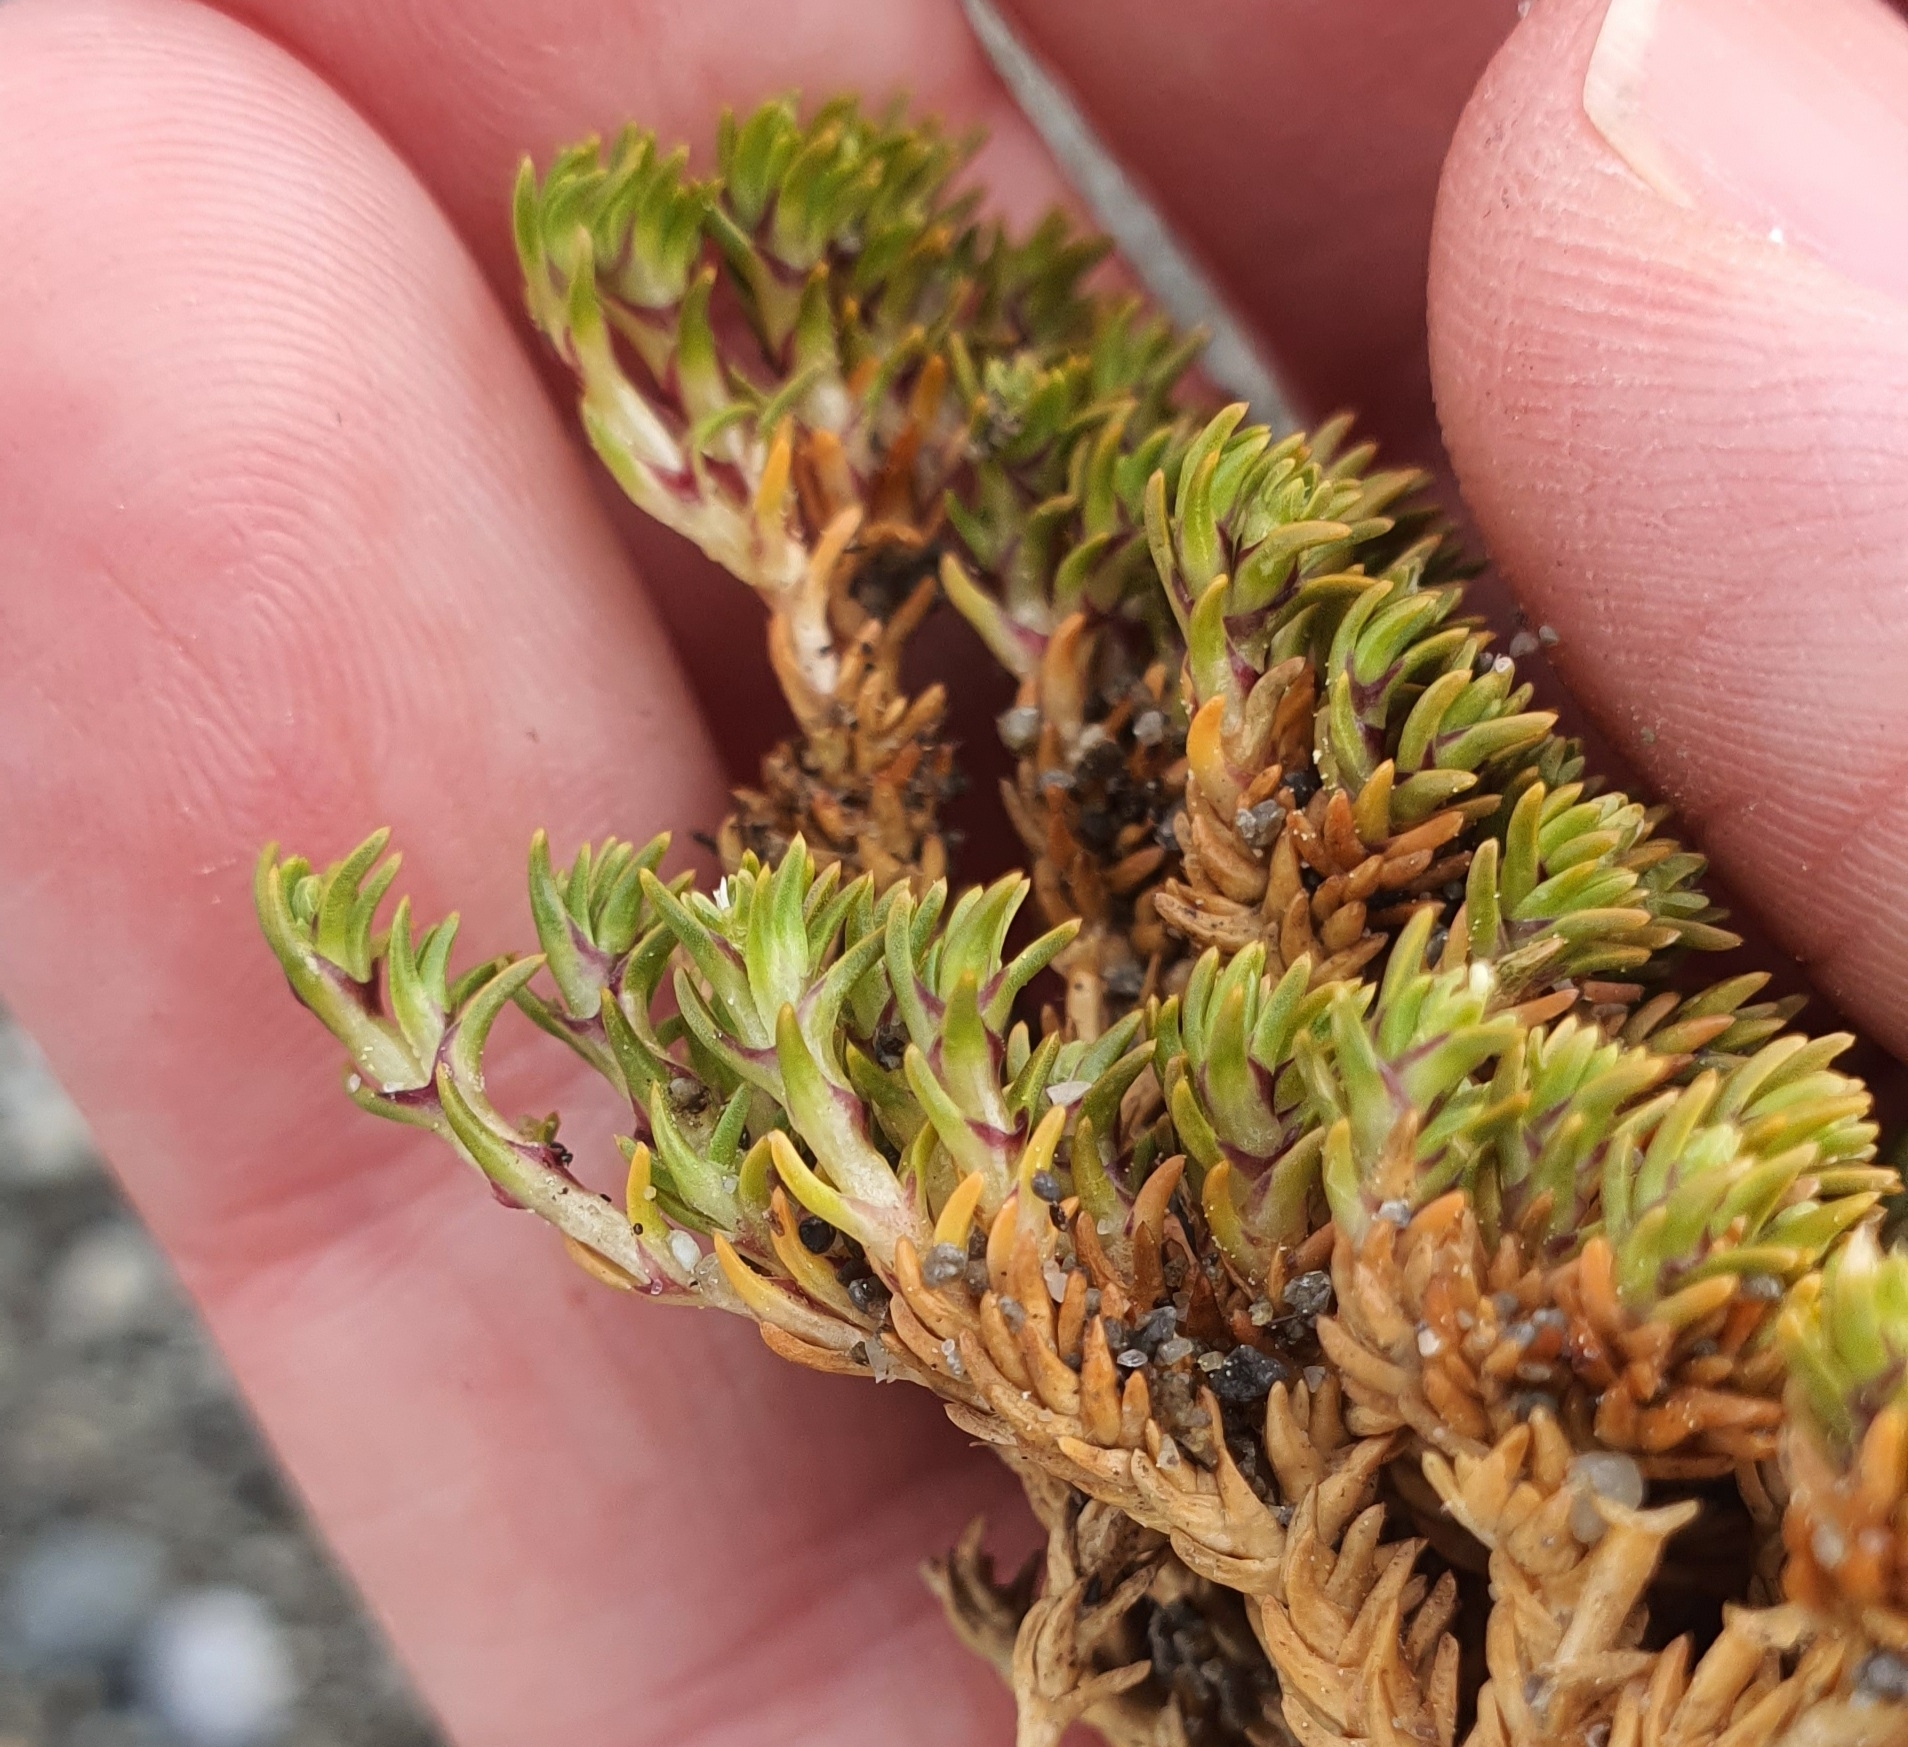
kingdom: Plantae
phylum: Tracheophyta
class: Magnoliopsida
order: Caryophyllales
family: Caryophyllaceae
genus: Scleranthus
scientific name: Scleranthus uniflorus
